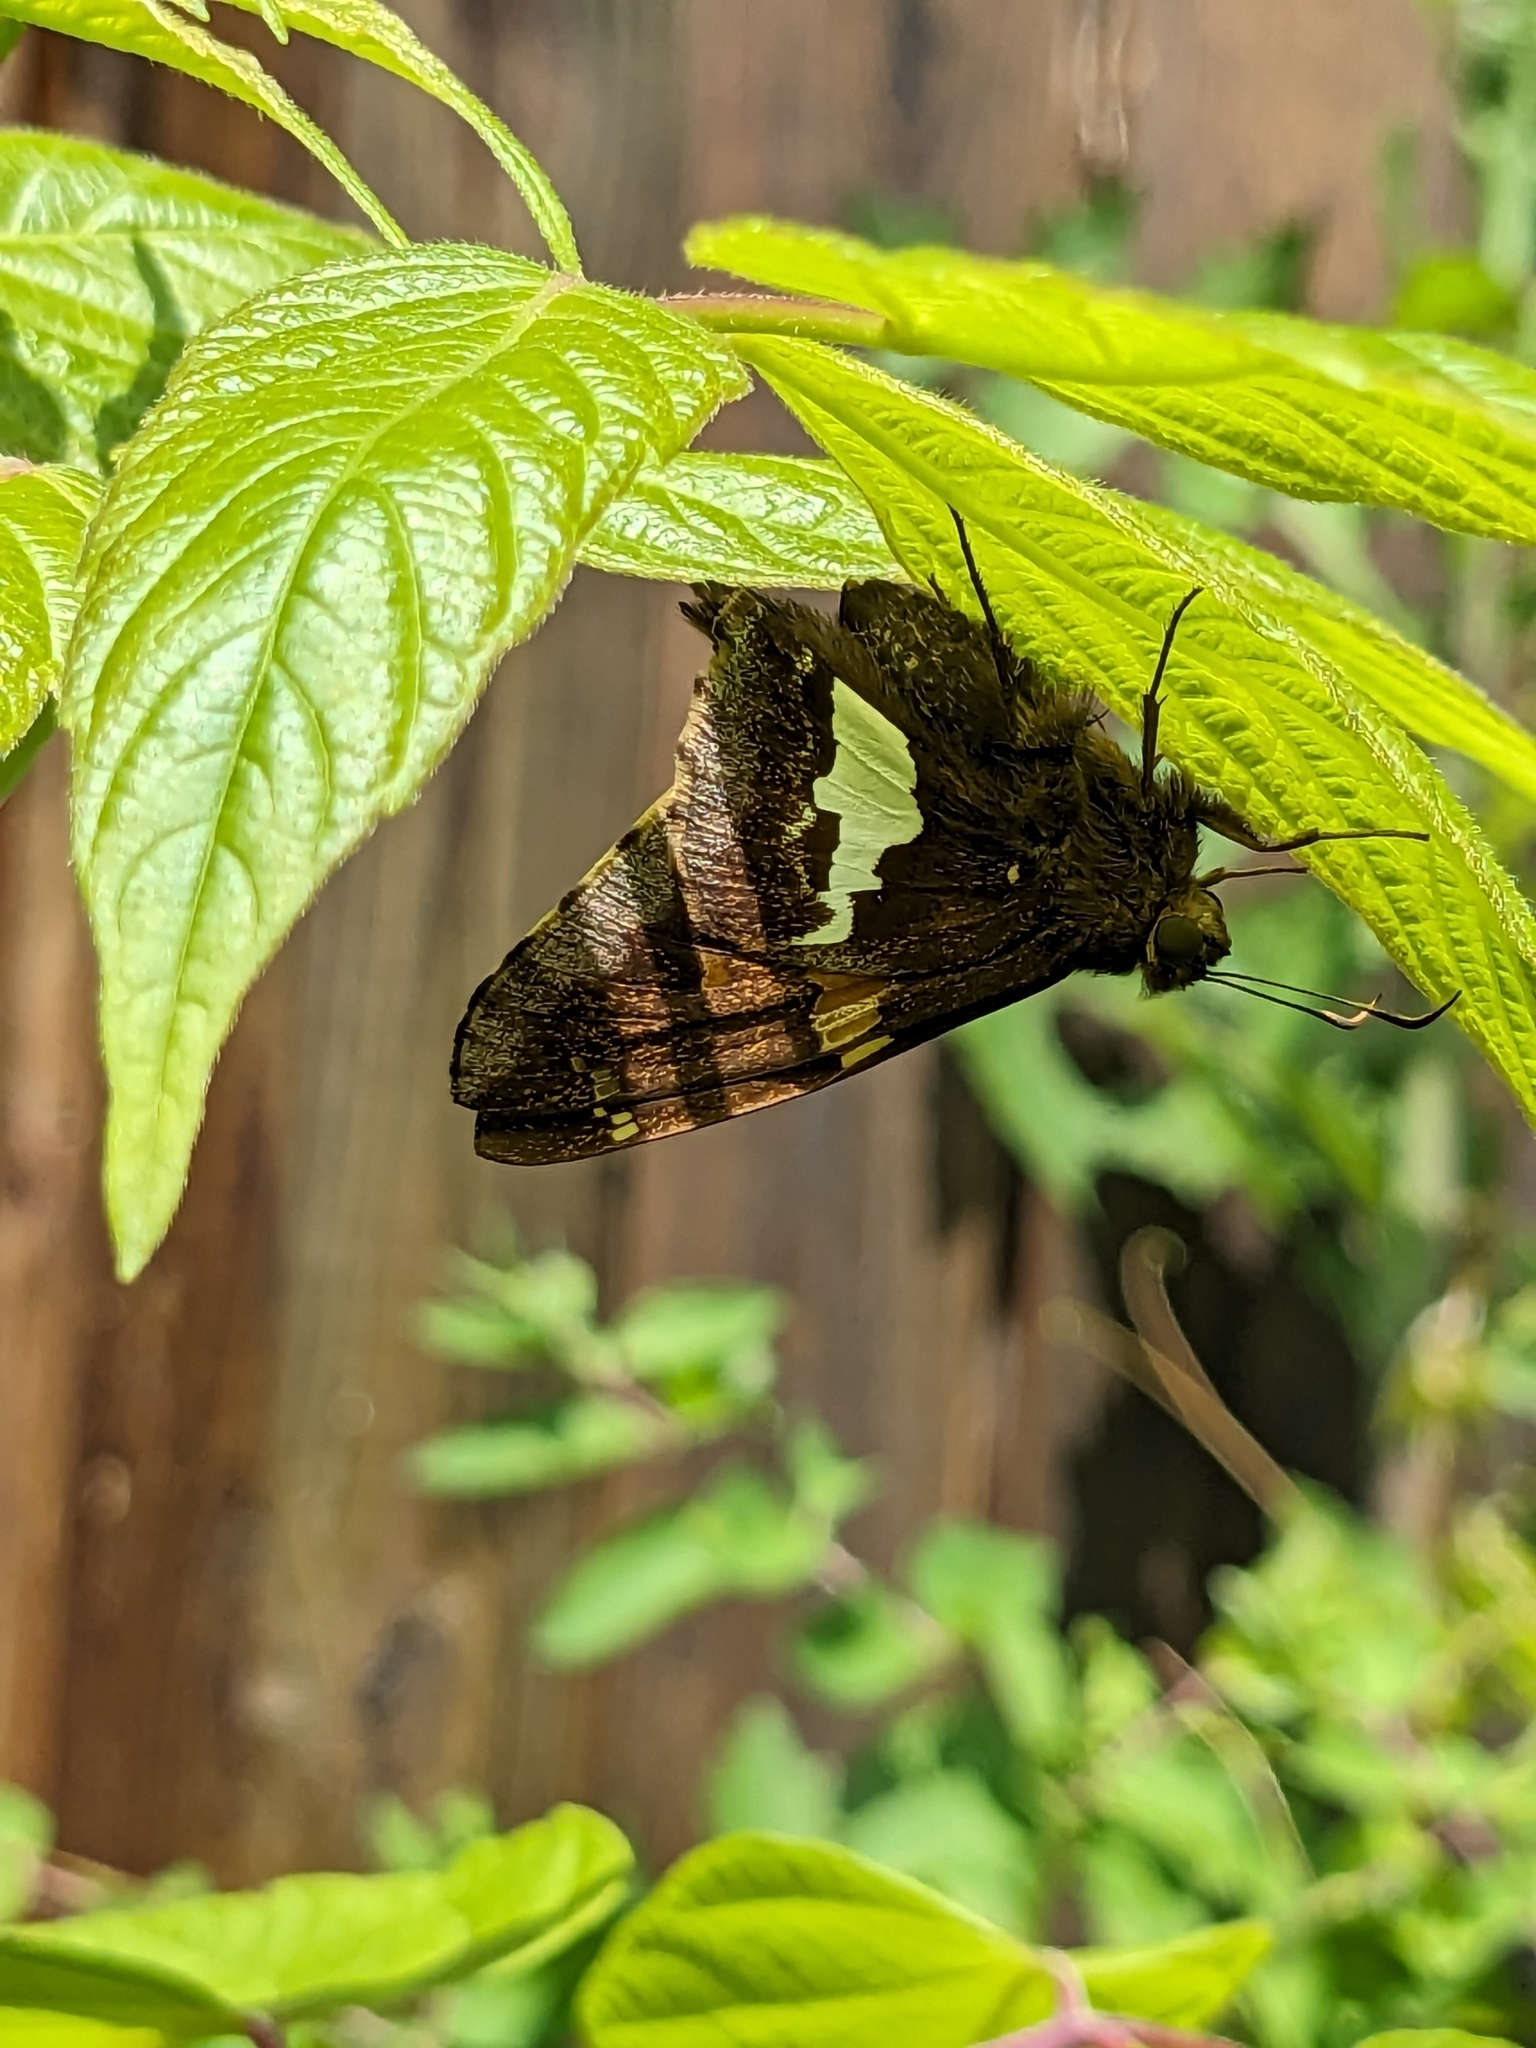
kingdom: Animalia
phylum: Arthropoda
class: Insecta
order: Lepidoptera
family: Hesperiidae
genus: Epargyreus
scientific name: Epargyreus clarus
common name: Silver-spotted skipper
